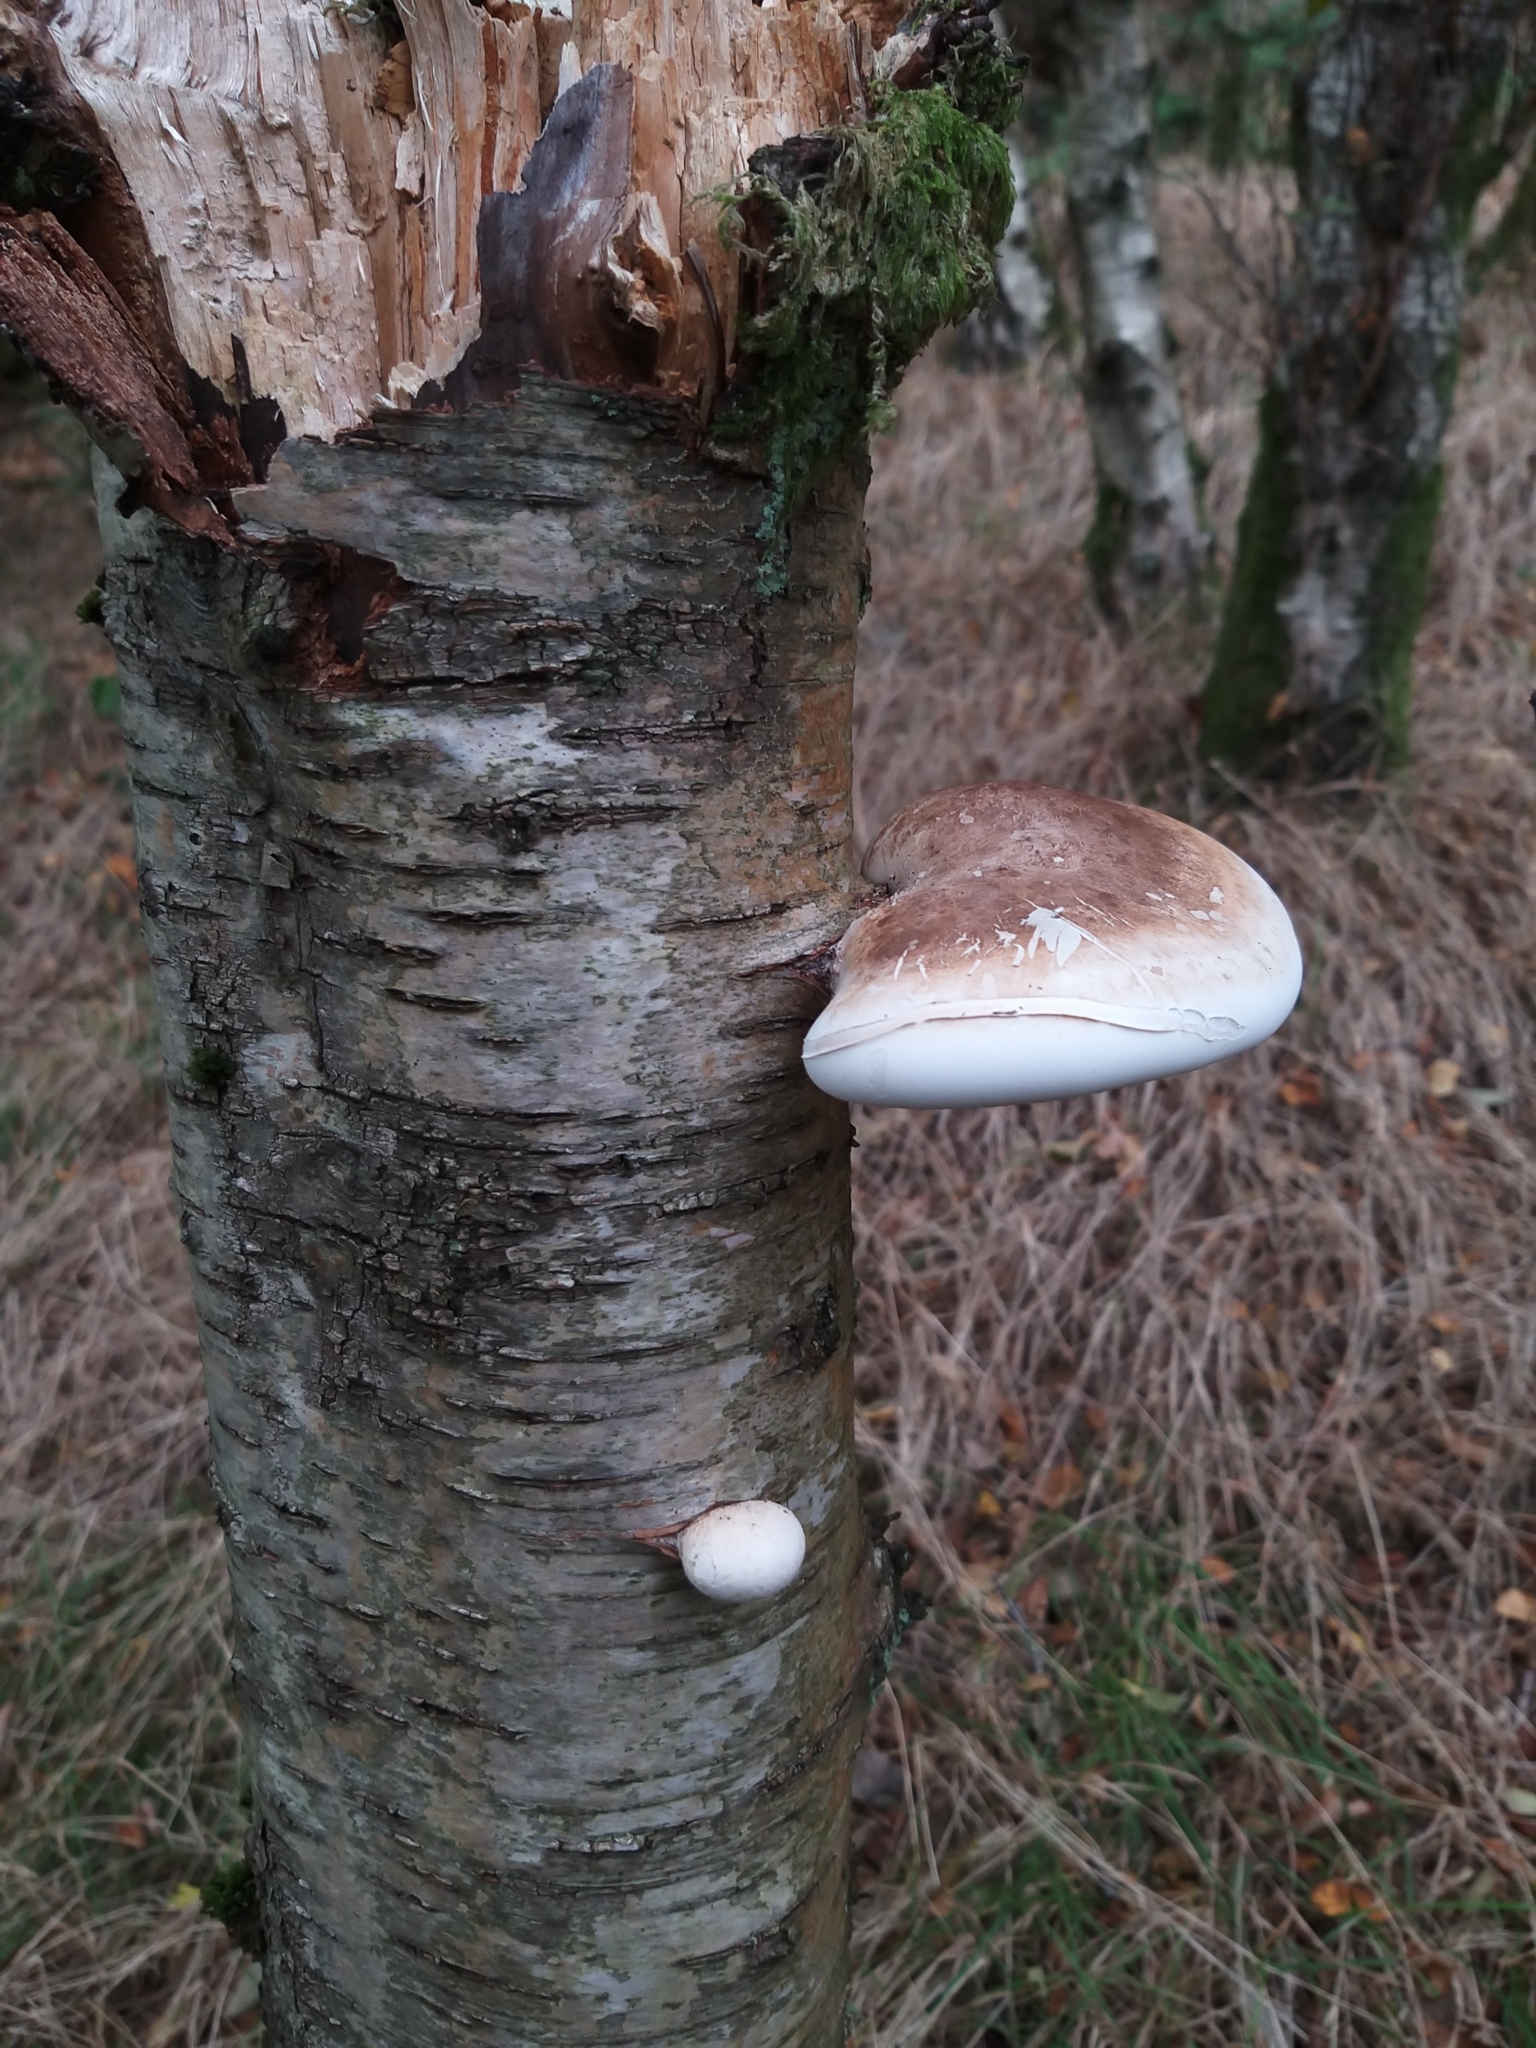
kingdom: Fungi
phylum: Basidiomycota
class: Agaricomycetes
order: Polyporales
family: Fomitopsidaceae
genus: Fomitopsis
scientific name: Fomitopsis betulina
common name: Birch polypore
